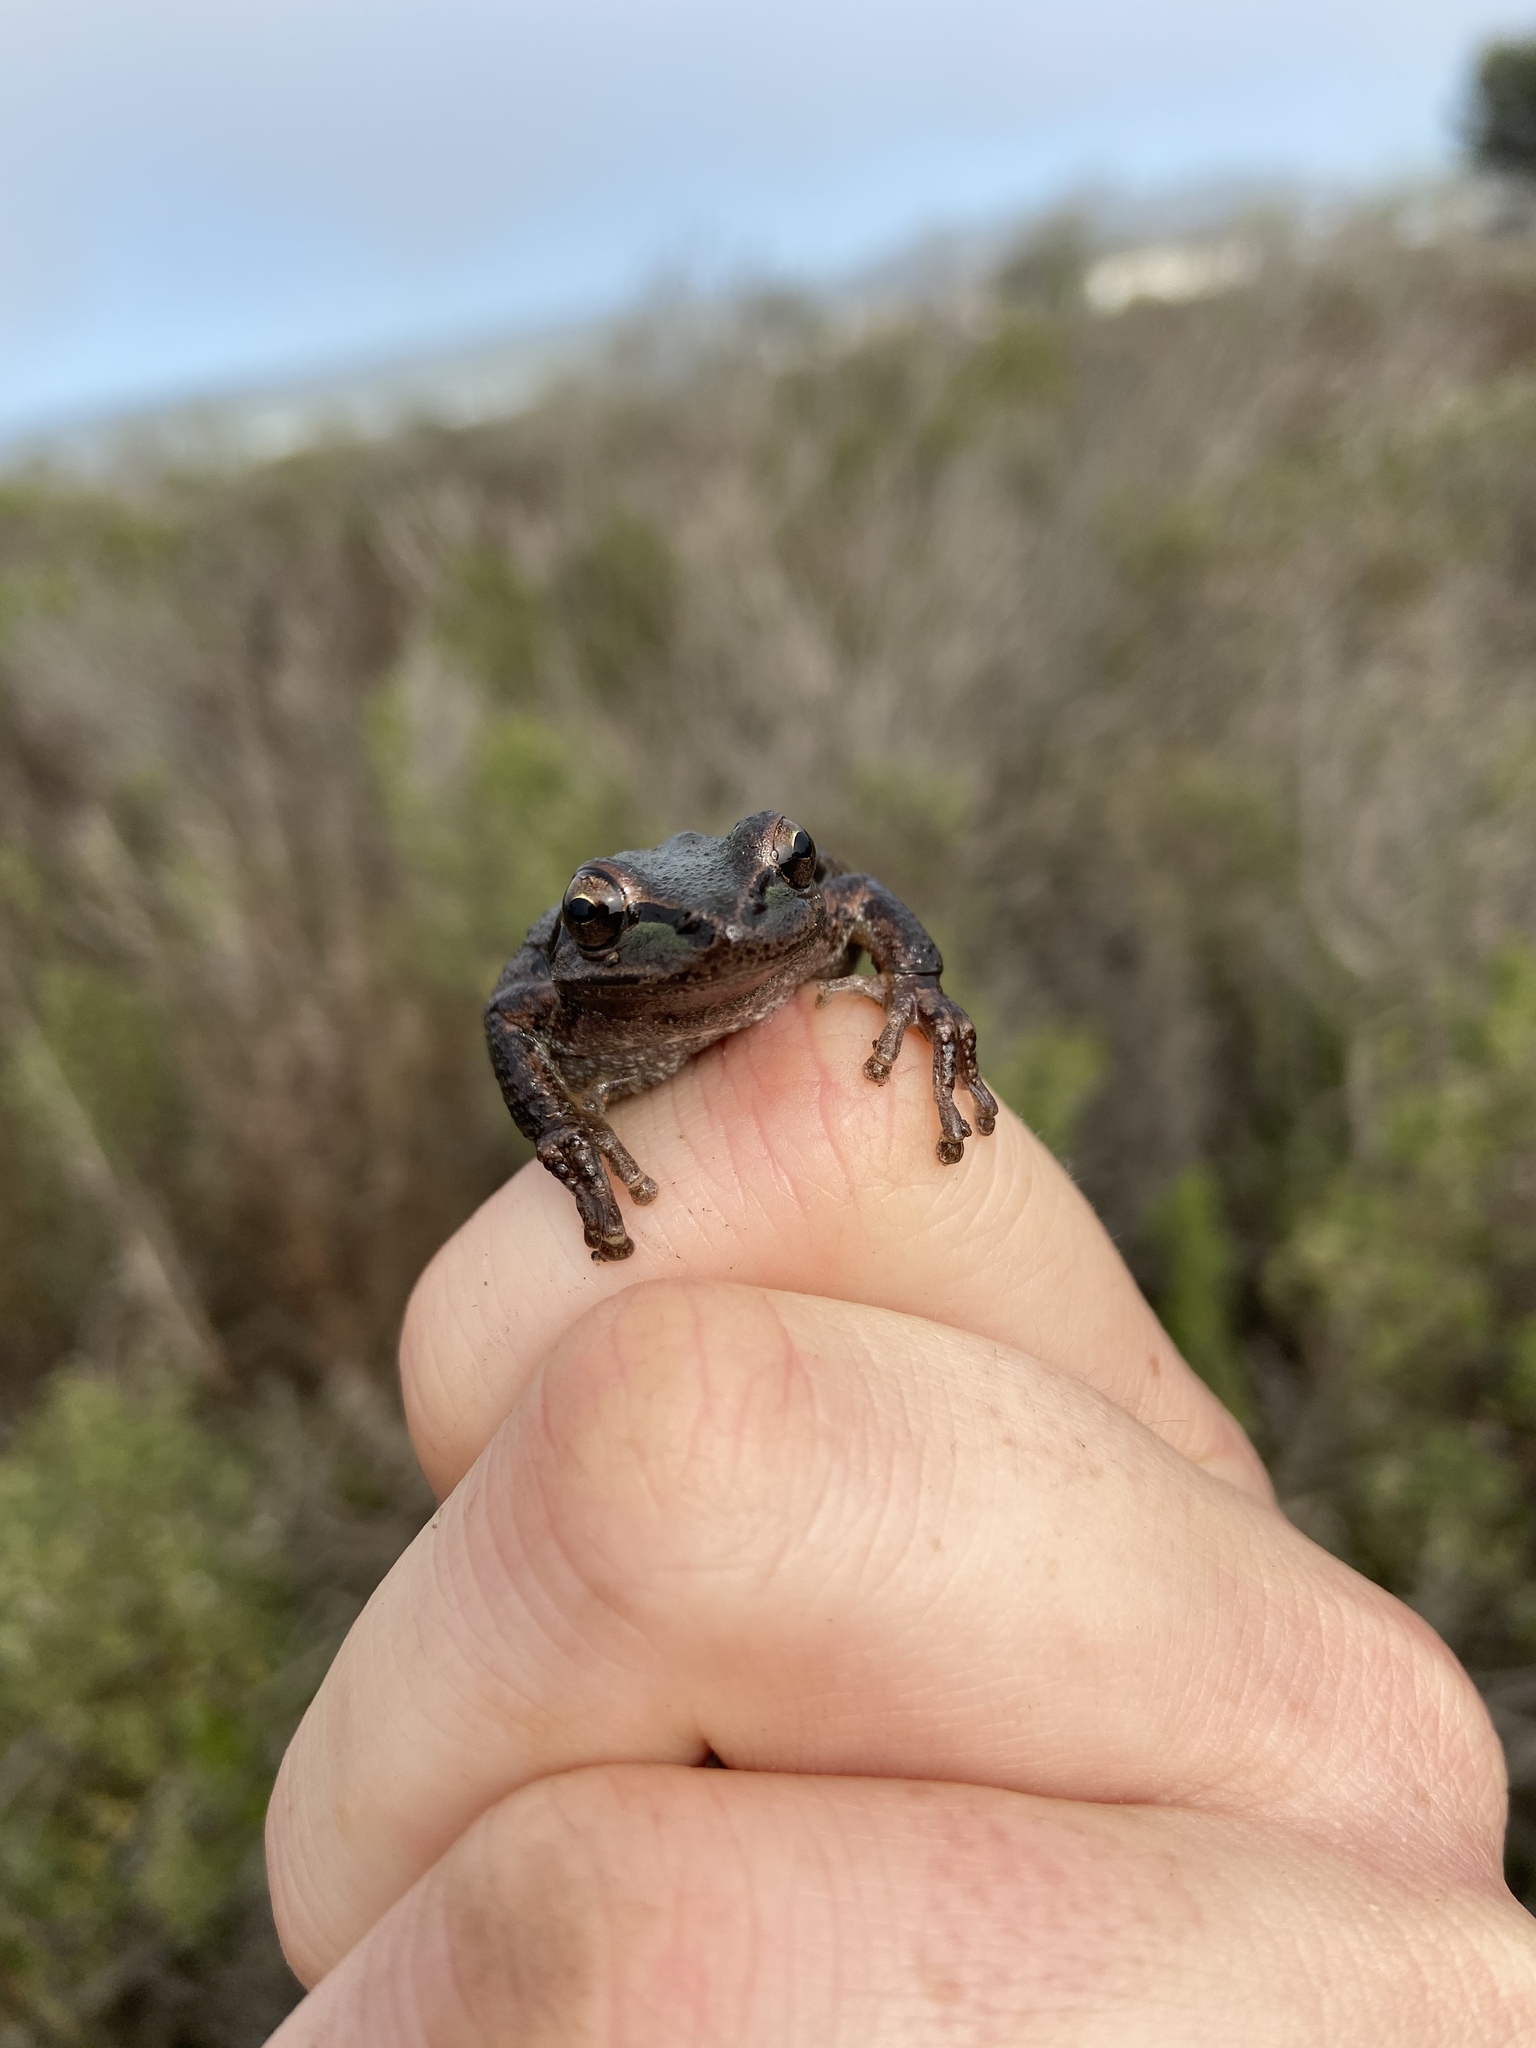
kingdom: Animalia
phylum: Chordata
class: Amphibia
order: Anura
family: Hylidae
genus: Pseudacris
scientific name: Pseudacris regilla
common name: Pacific chorus frog
